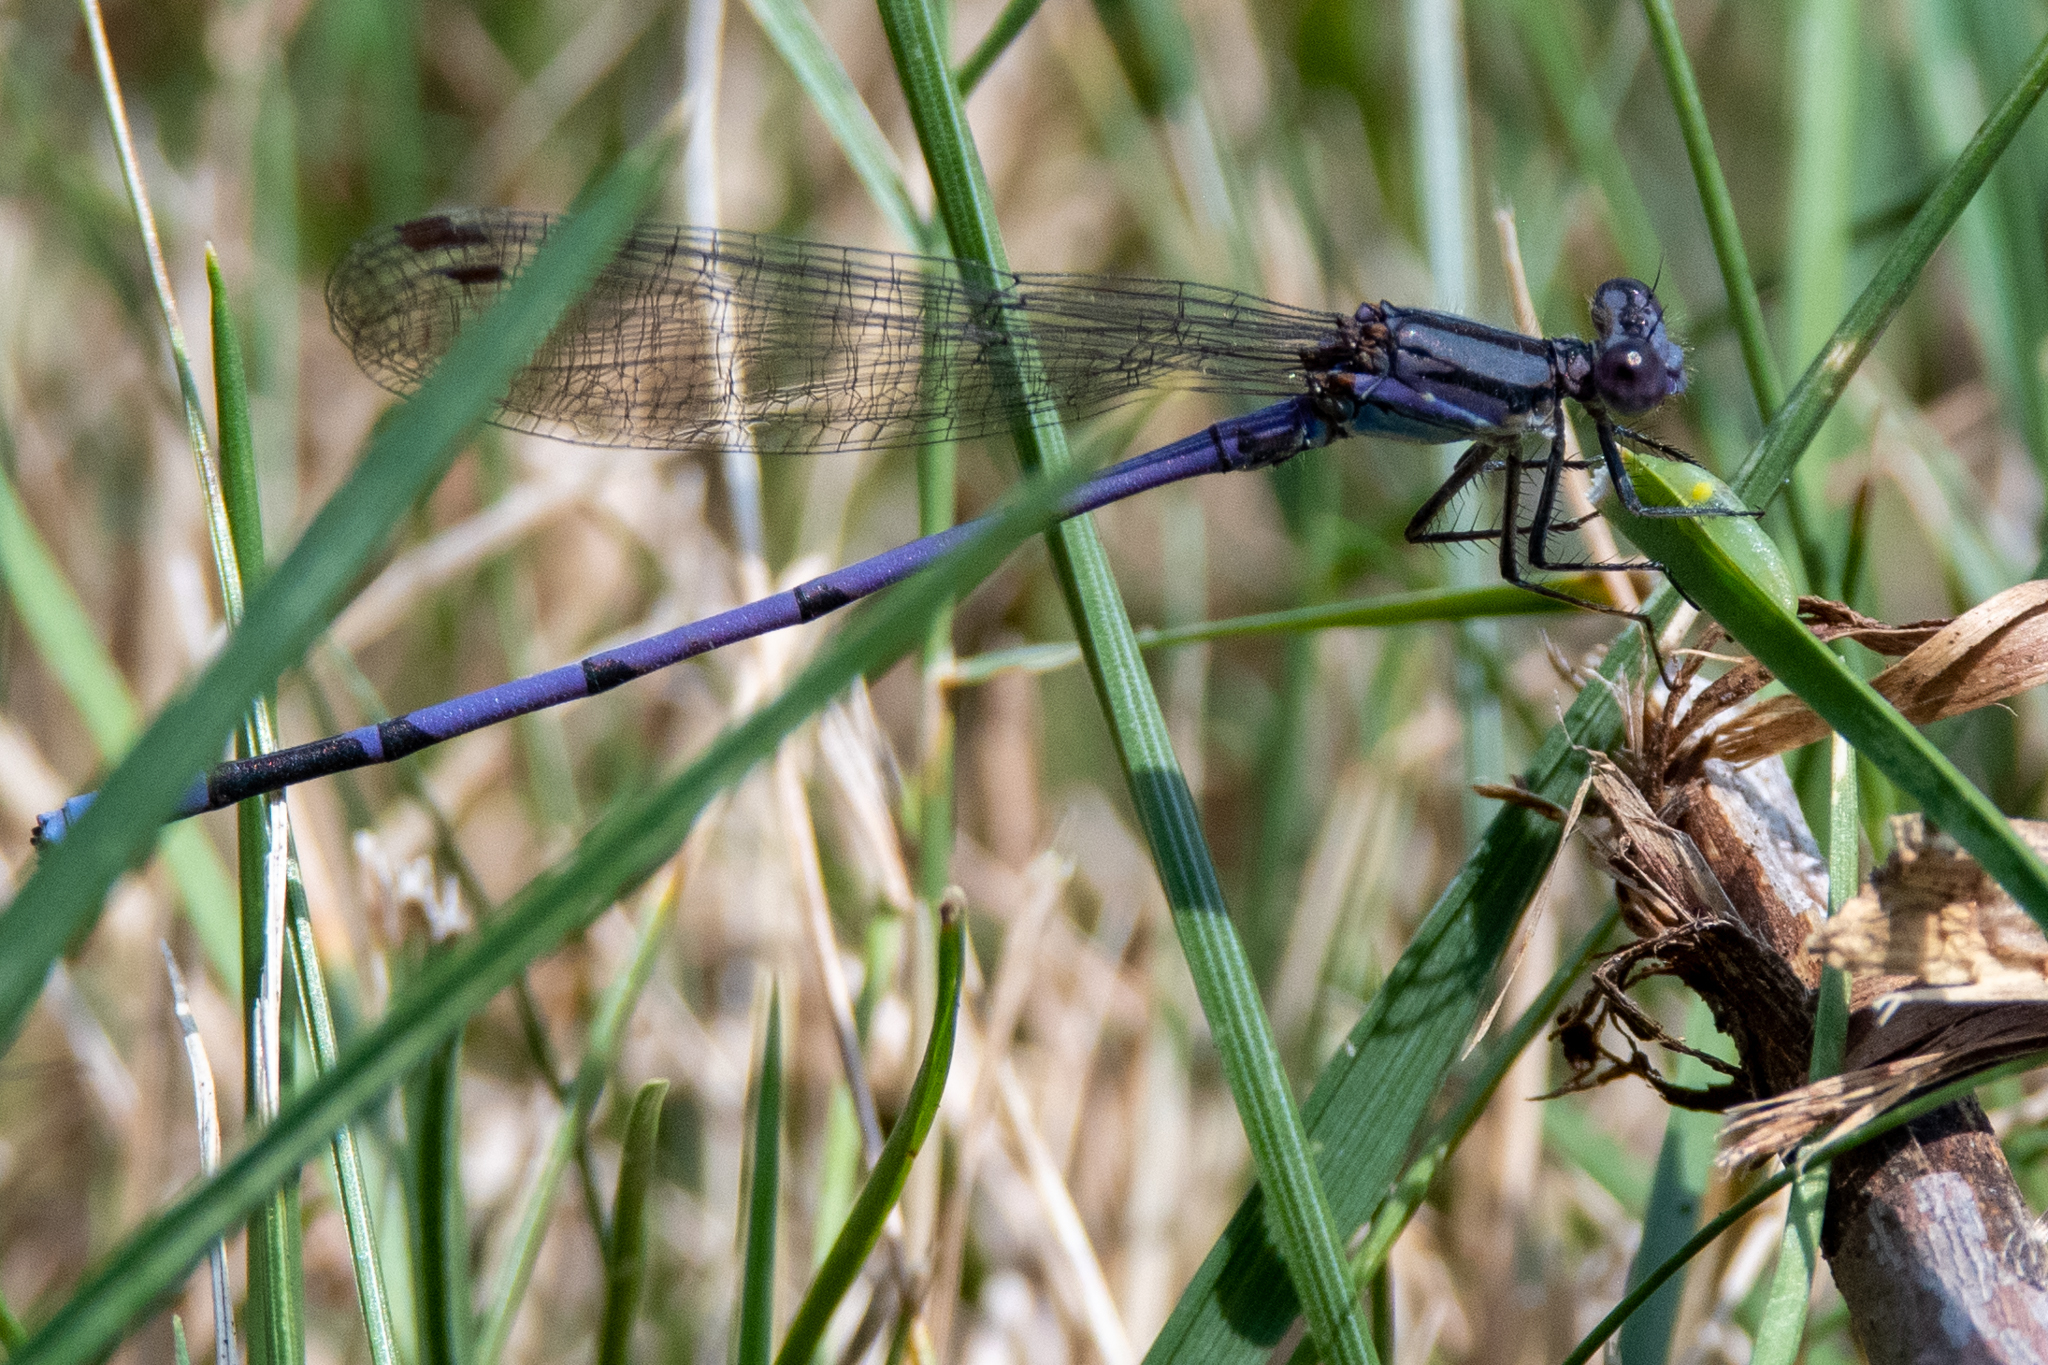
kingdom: Animalia
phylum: Arthropoda
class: Insecta
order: Odonata
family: Coenagrionidae
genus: Argia
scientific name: Argia fumipennis
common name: Variable dancer
